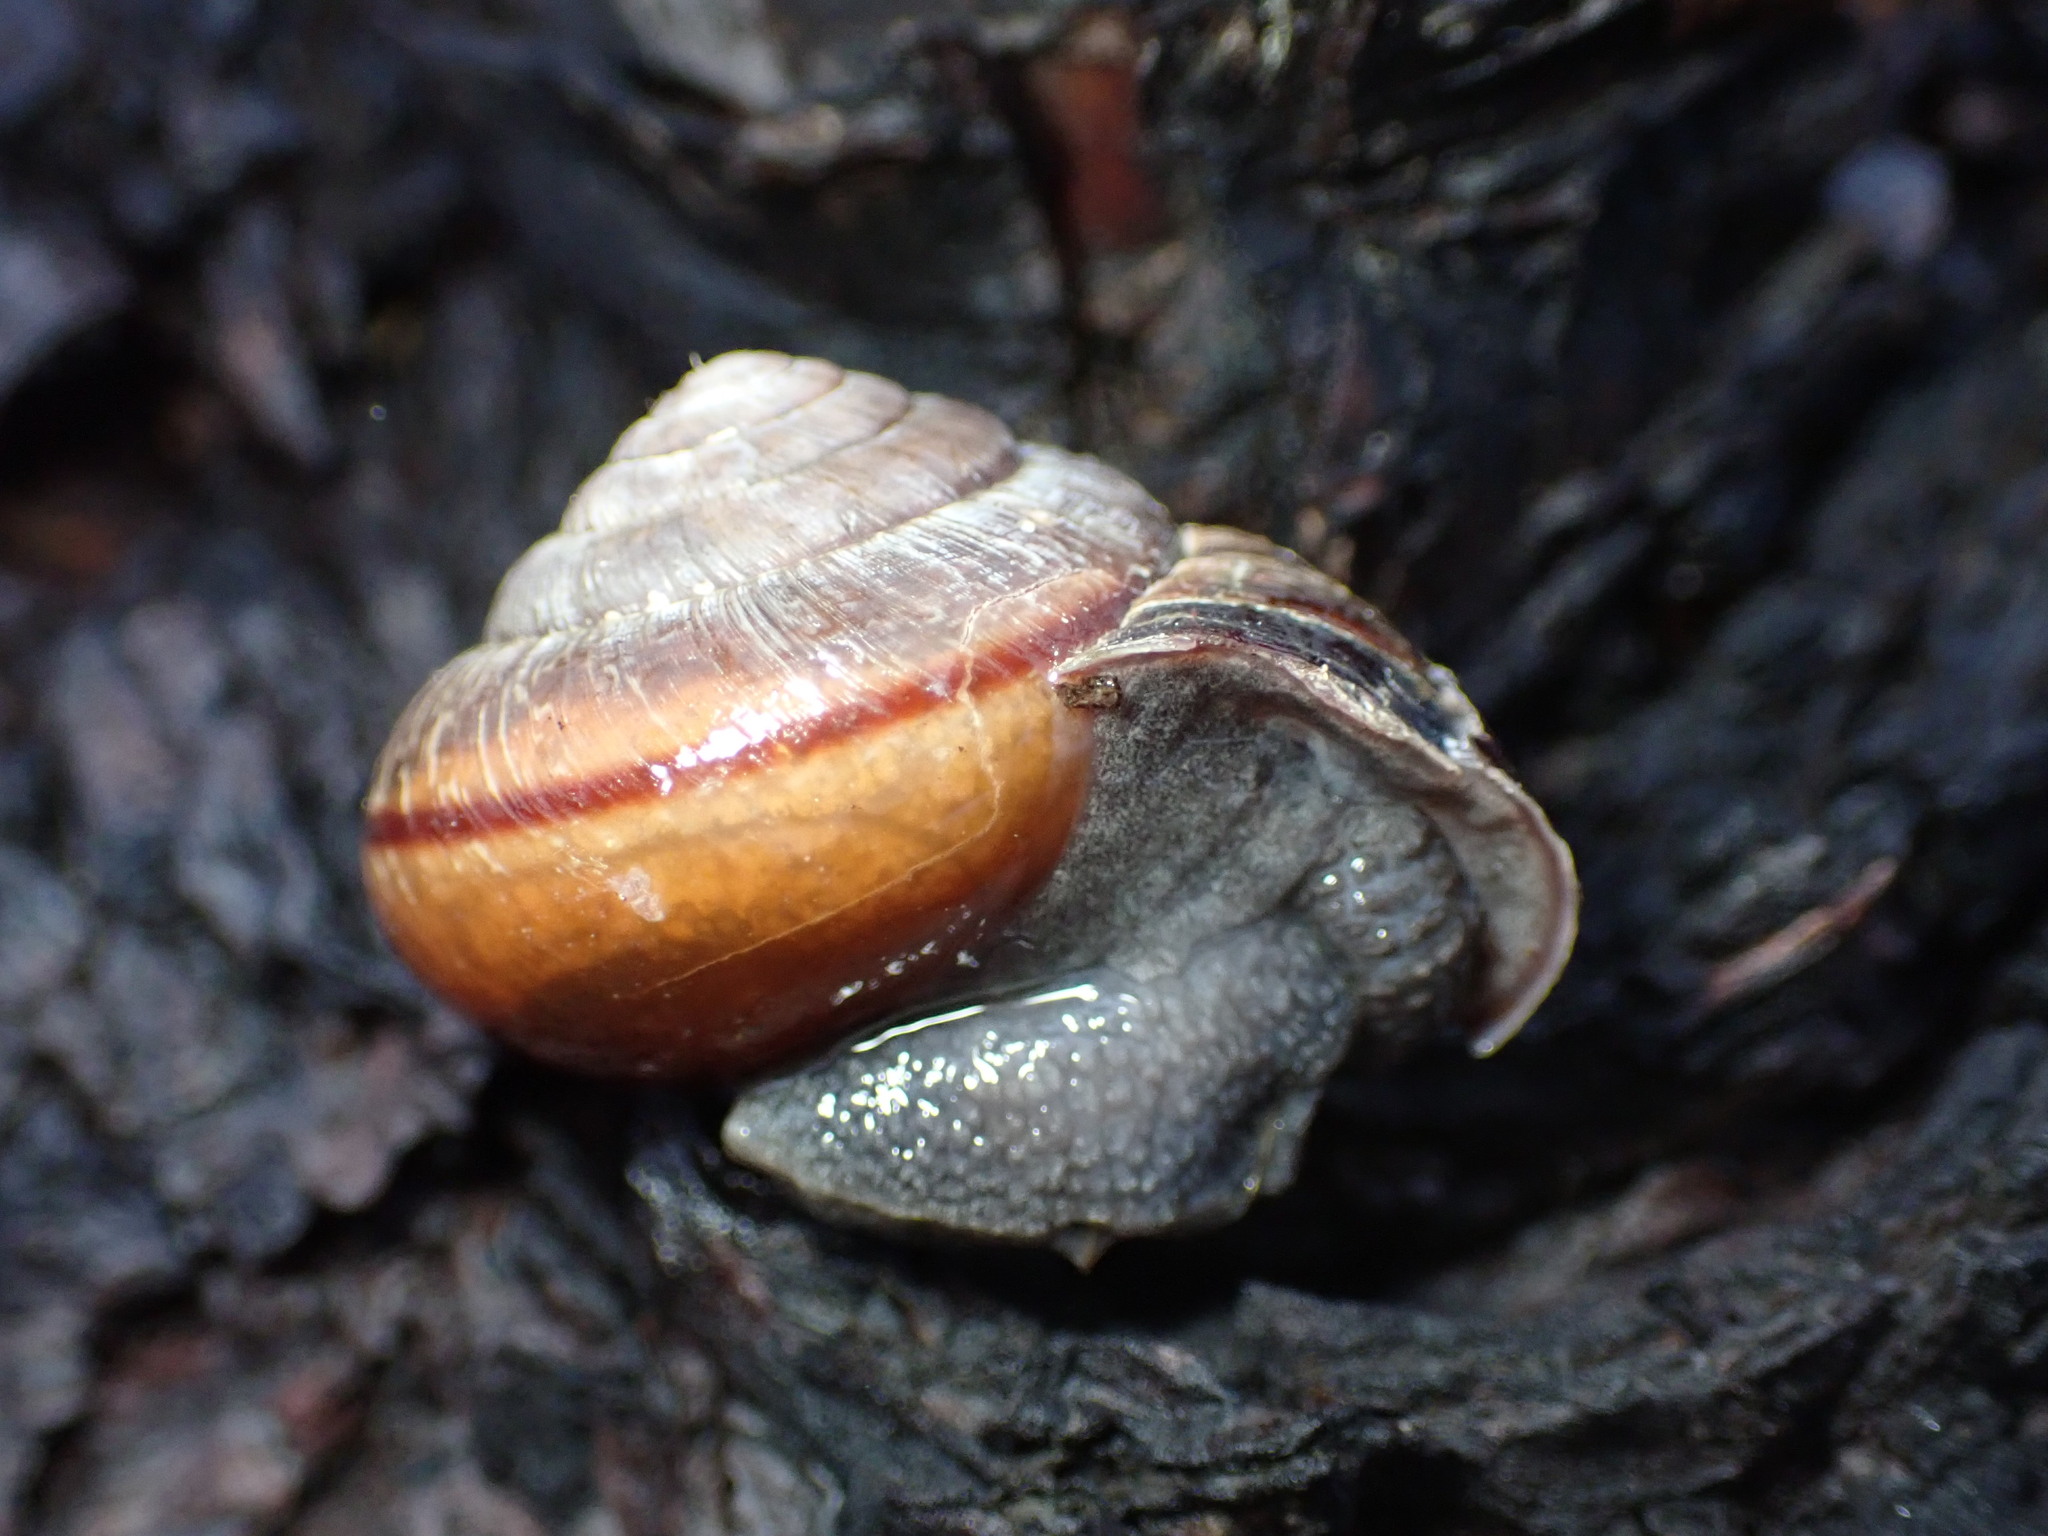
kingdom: Animalia
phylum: Mollusca
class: Gastropoda
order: Stylommatophora
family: Xanthonychidae
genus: Helminthoglypta
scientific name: Helminthoglypta arrosa
